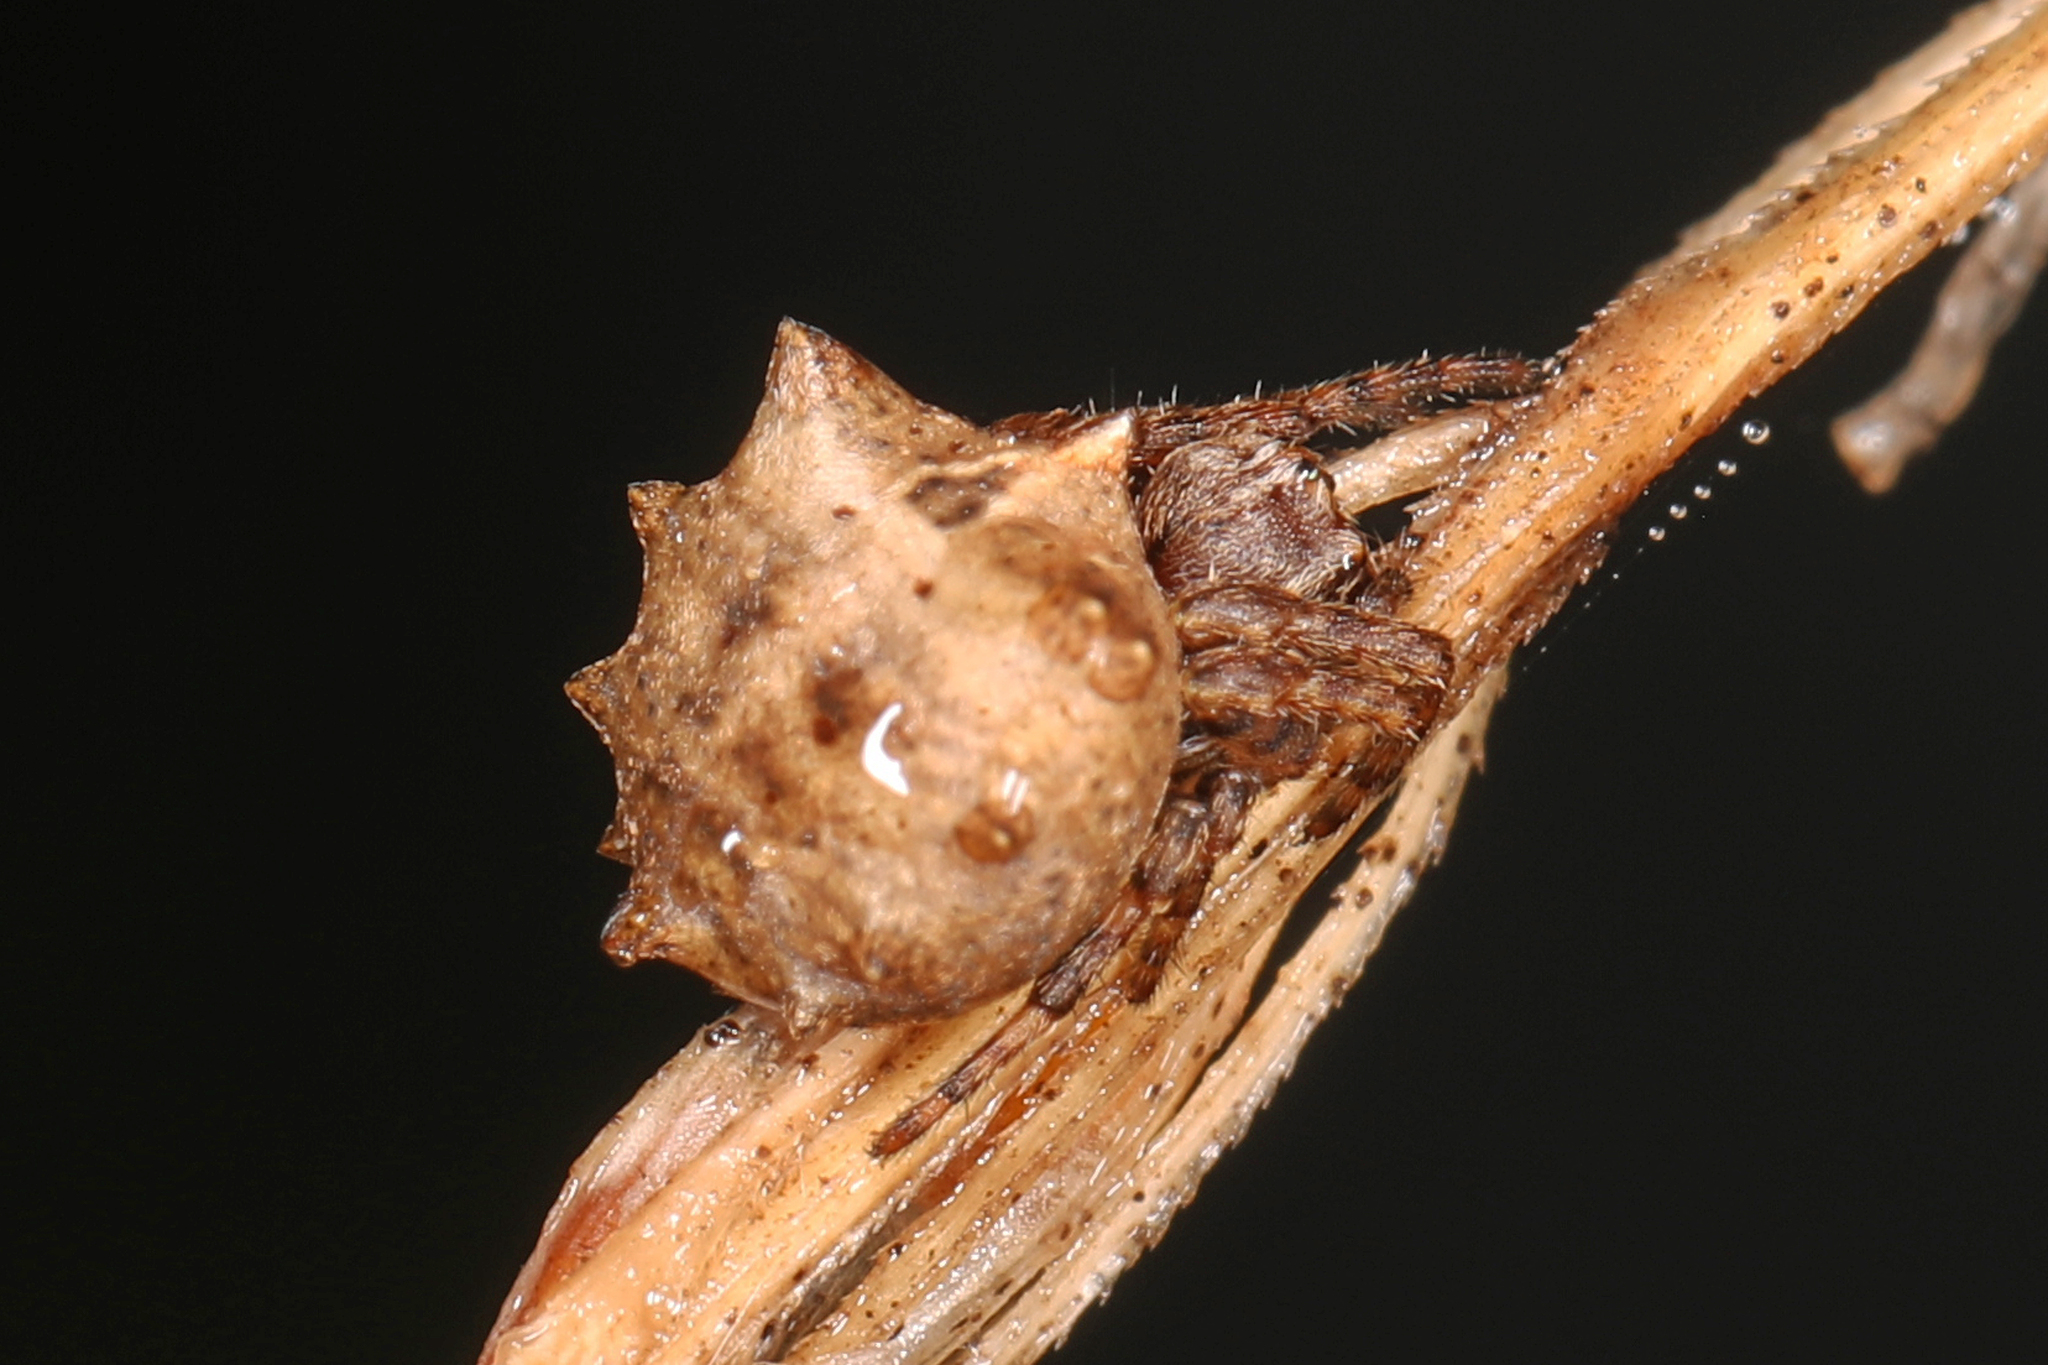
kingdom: Animalia
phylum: Arthropoda
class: Arachnida
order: Araneae
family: Araneidae
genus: Acanthepeira
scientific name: Acanthepeira stellata
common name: Starbellied orbweaver
